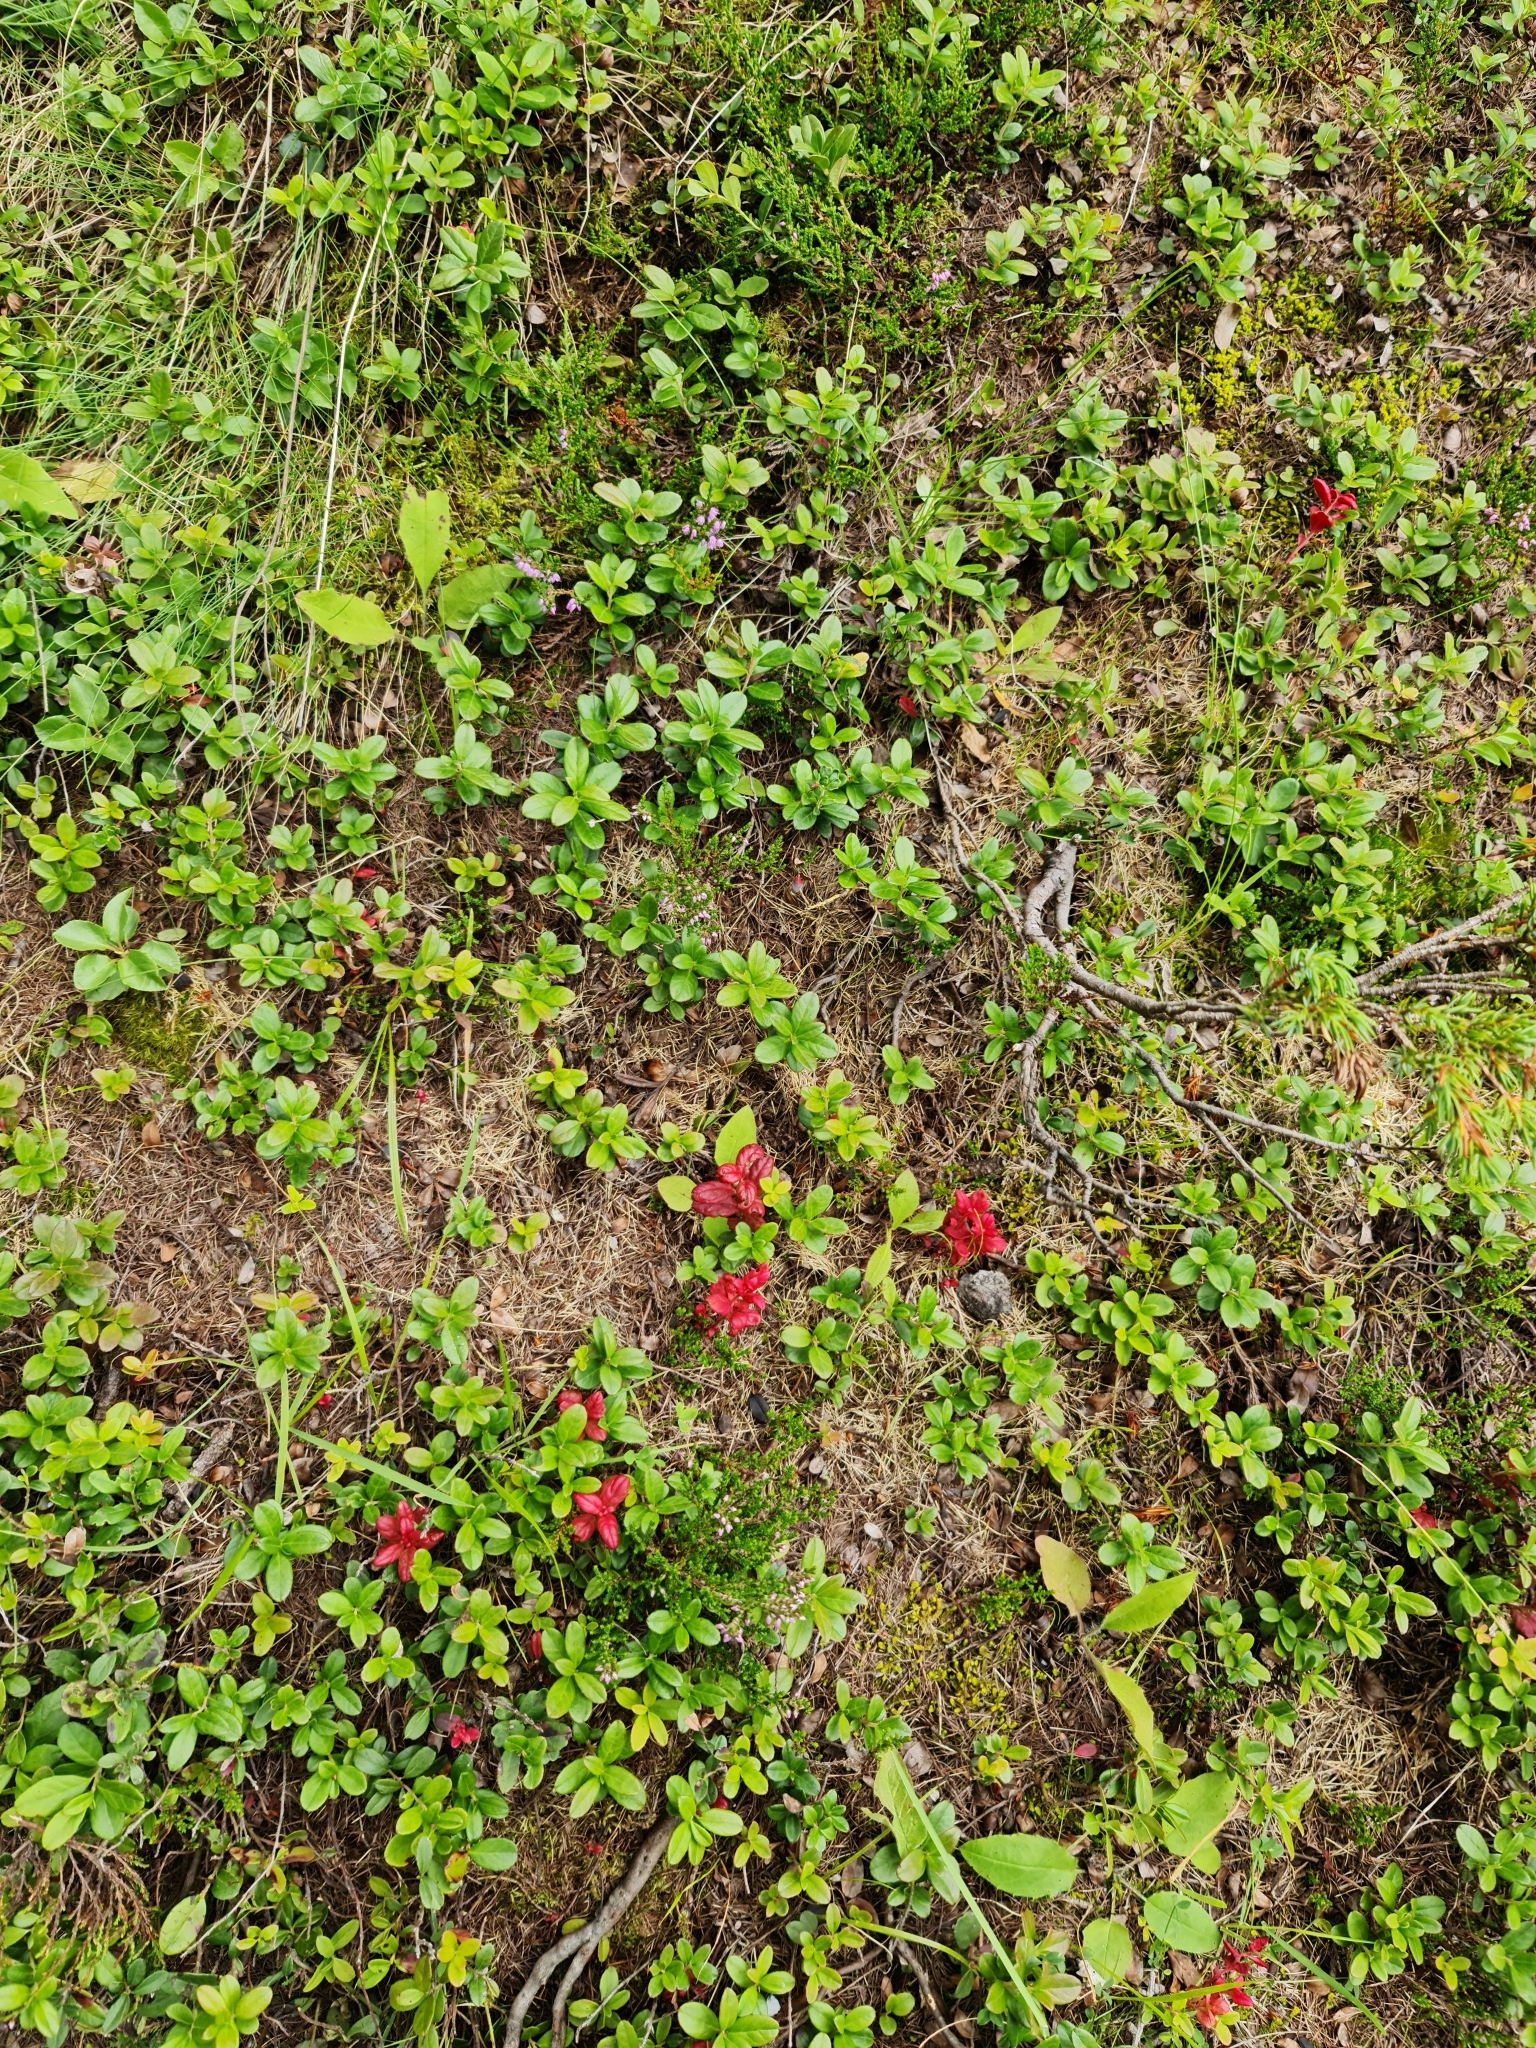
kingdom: Plantae
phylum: Tracheophyta
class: Magnoliopsida
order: Ericales
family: Ericaceae
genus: Vaccinium
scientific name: Vaccinium vitis-idaea
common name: Cowberry
